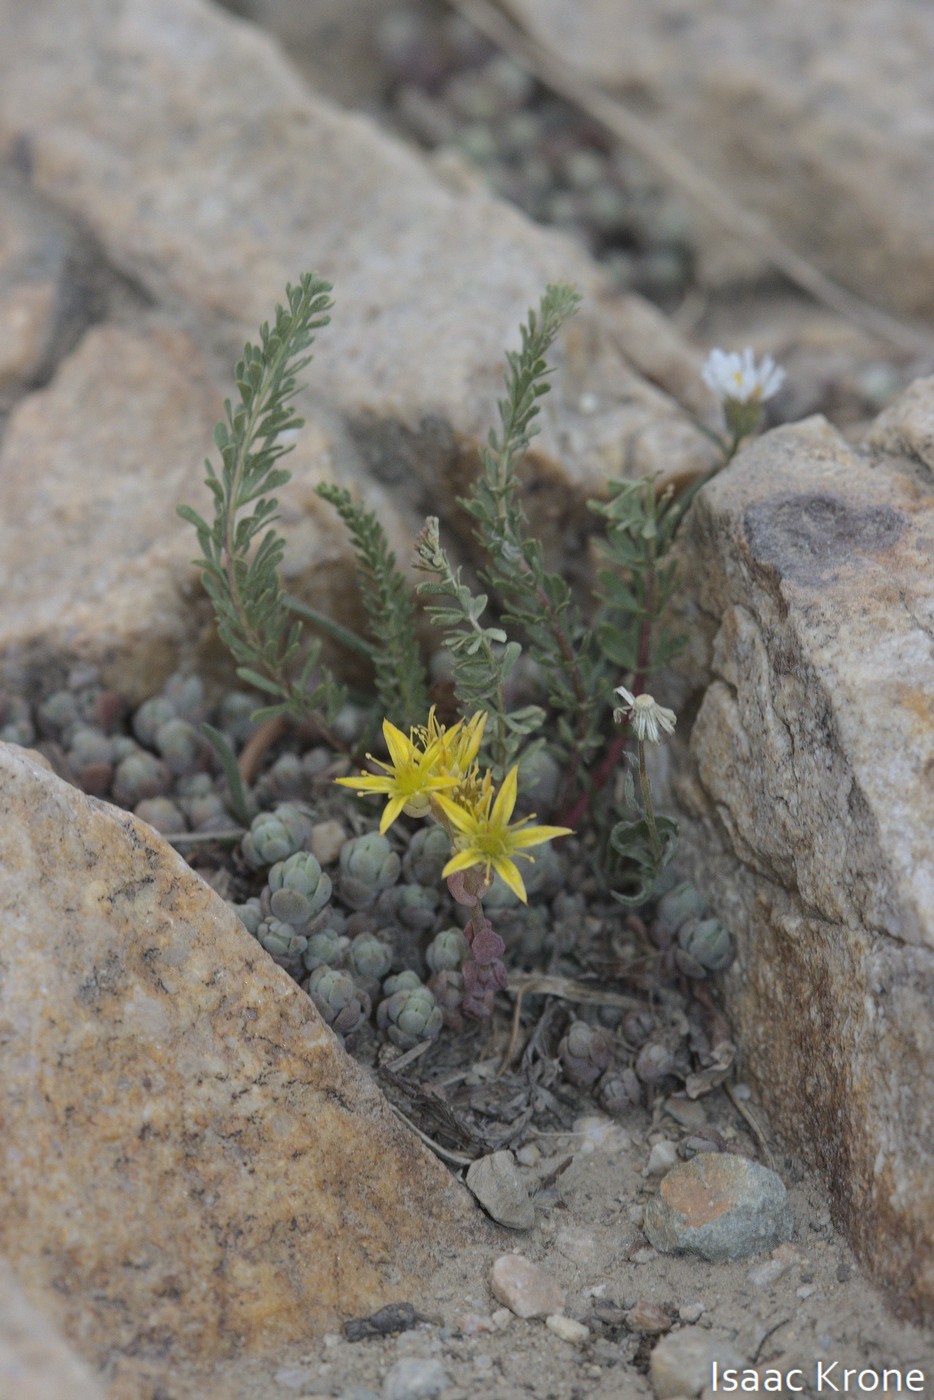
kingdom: Plantae
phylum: Tracheophyta
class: Magnoliopsida
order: Saxifragales
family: Crassulaceae
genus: Sedum
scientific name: Sedum debile
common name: Weak-stem stonecrop
